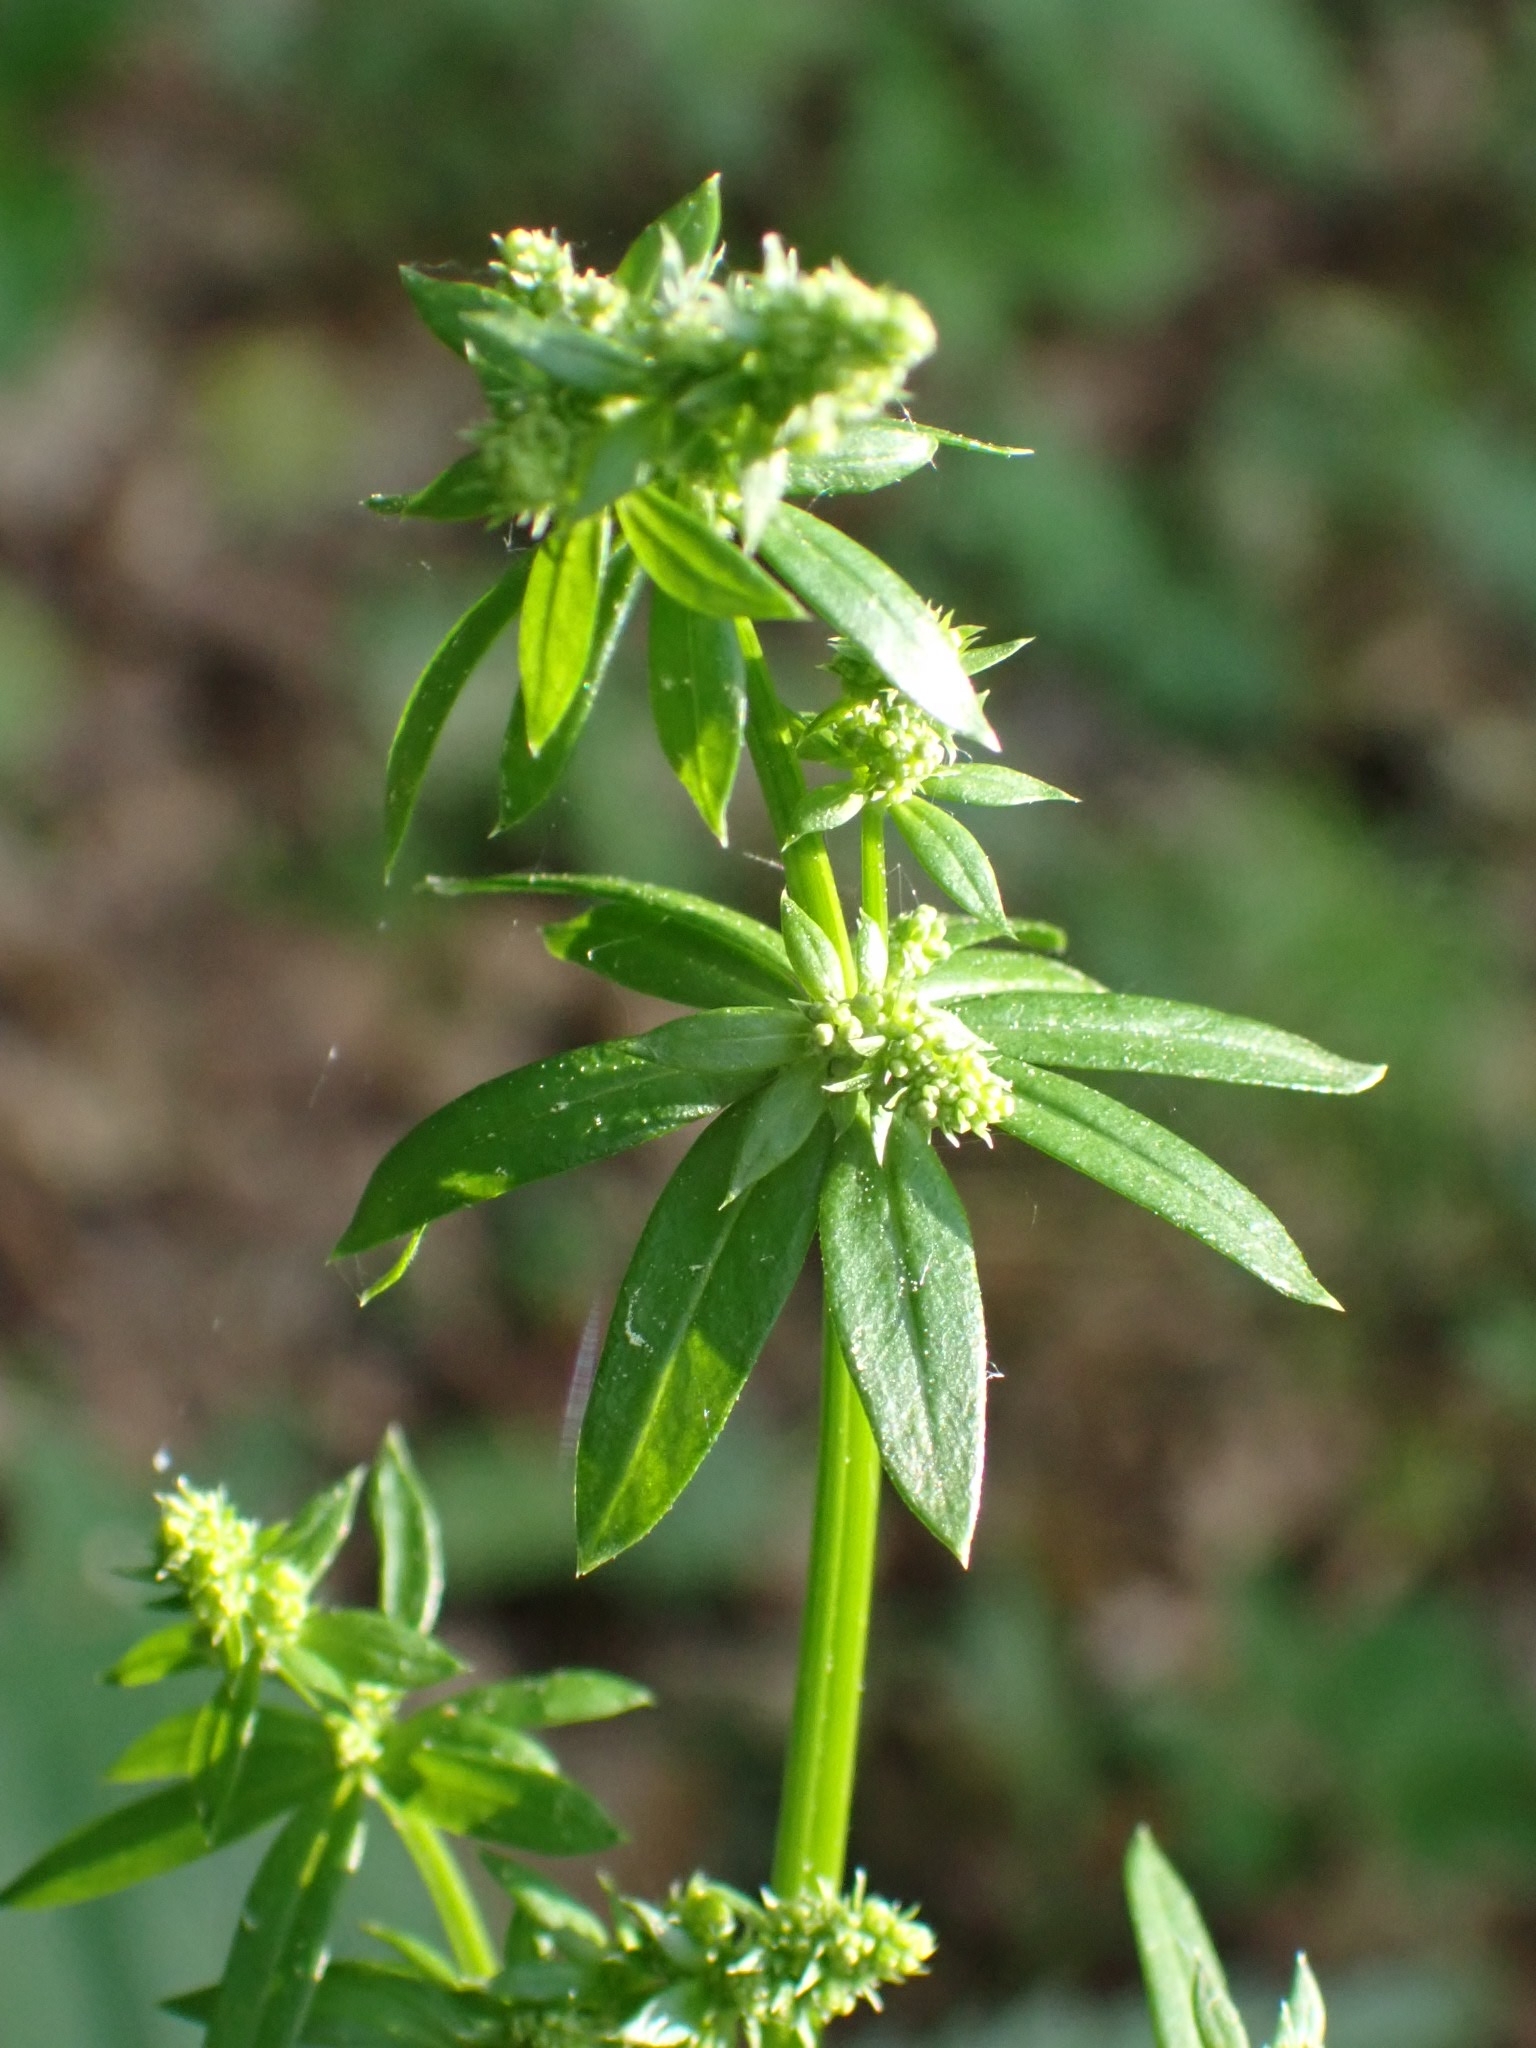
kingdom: Plantae
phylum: Tracheophyta
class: Magnoliopsida
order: Gentianales
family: Rubiaceae
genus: Galium
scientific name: Galium mollugo
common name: Hedge bedstraw
